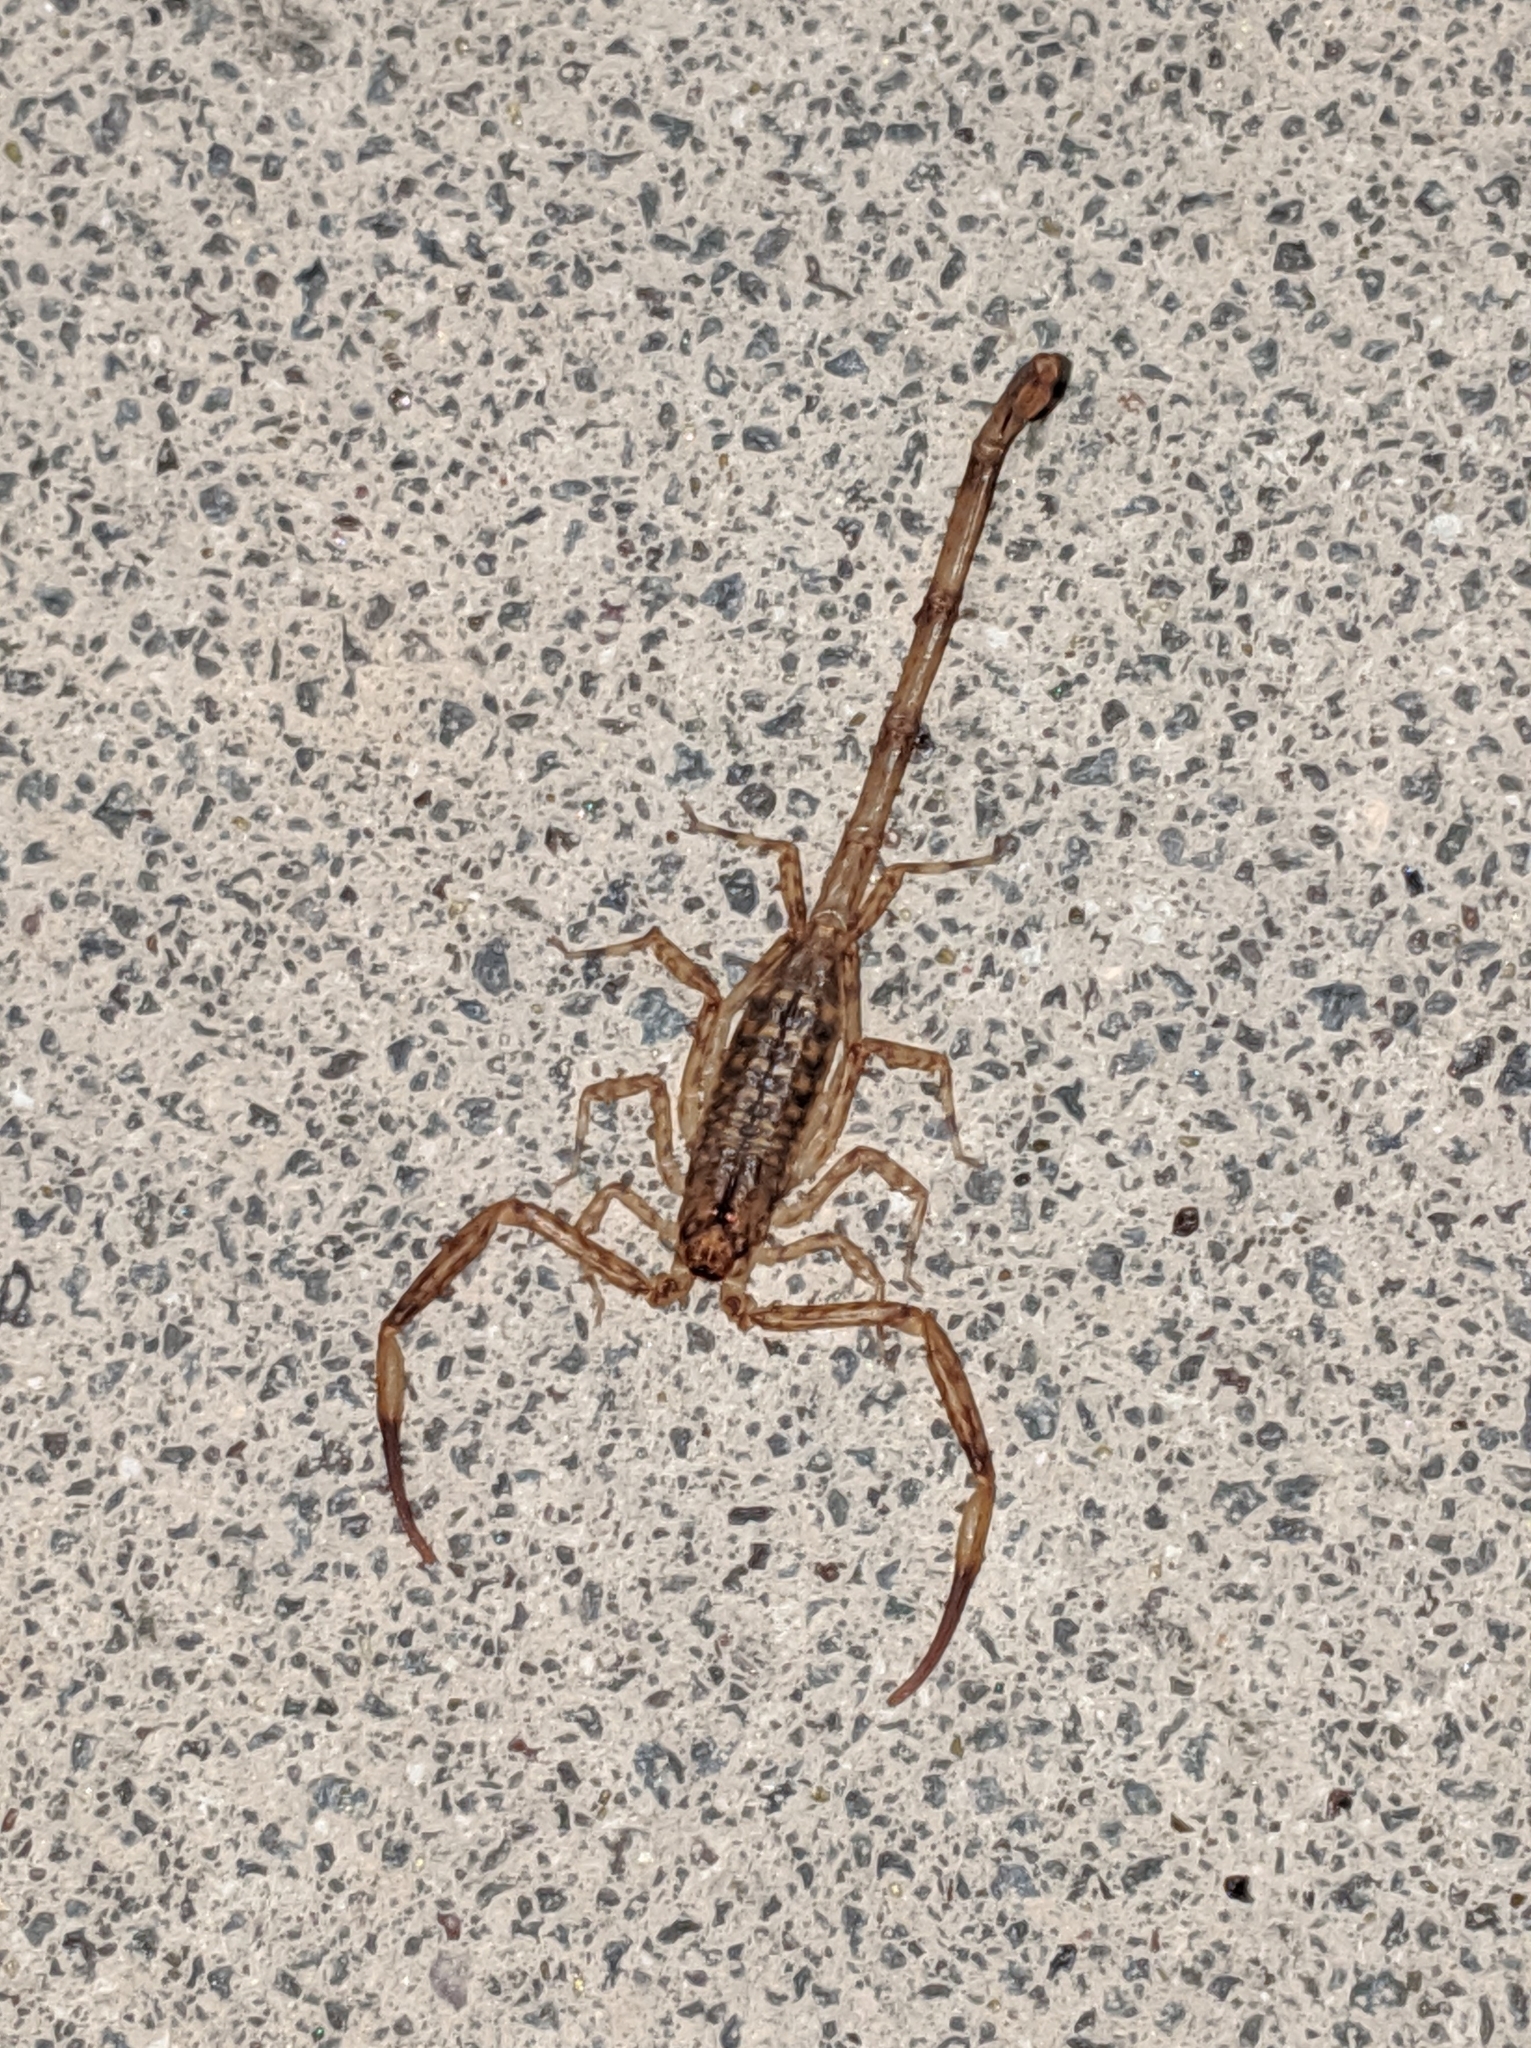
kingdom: Animalia
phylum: Arthropoda
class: Arachnida
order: Scorpiones
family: Buthidae
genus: Isometrus
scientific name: Isometrus maculatus
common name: Scorpions
